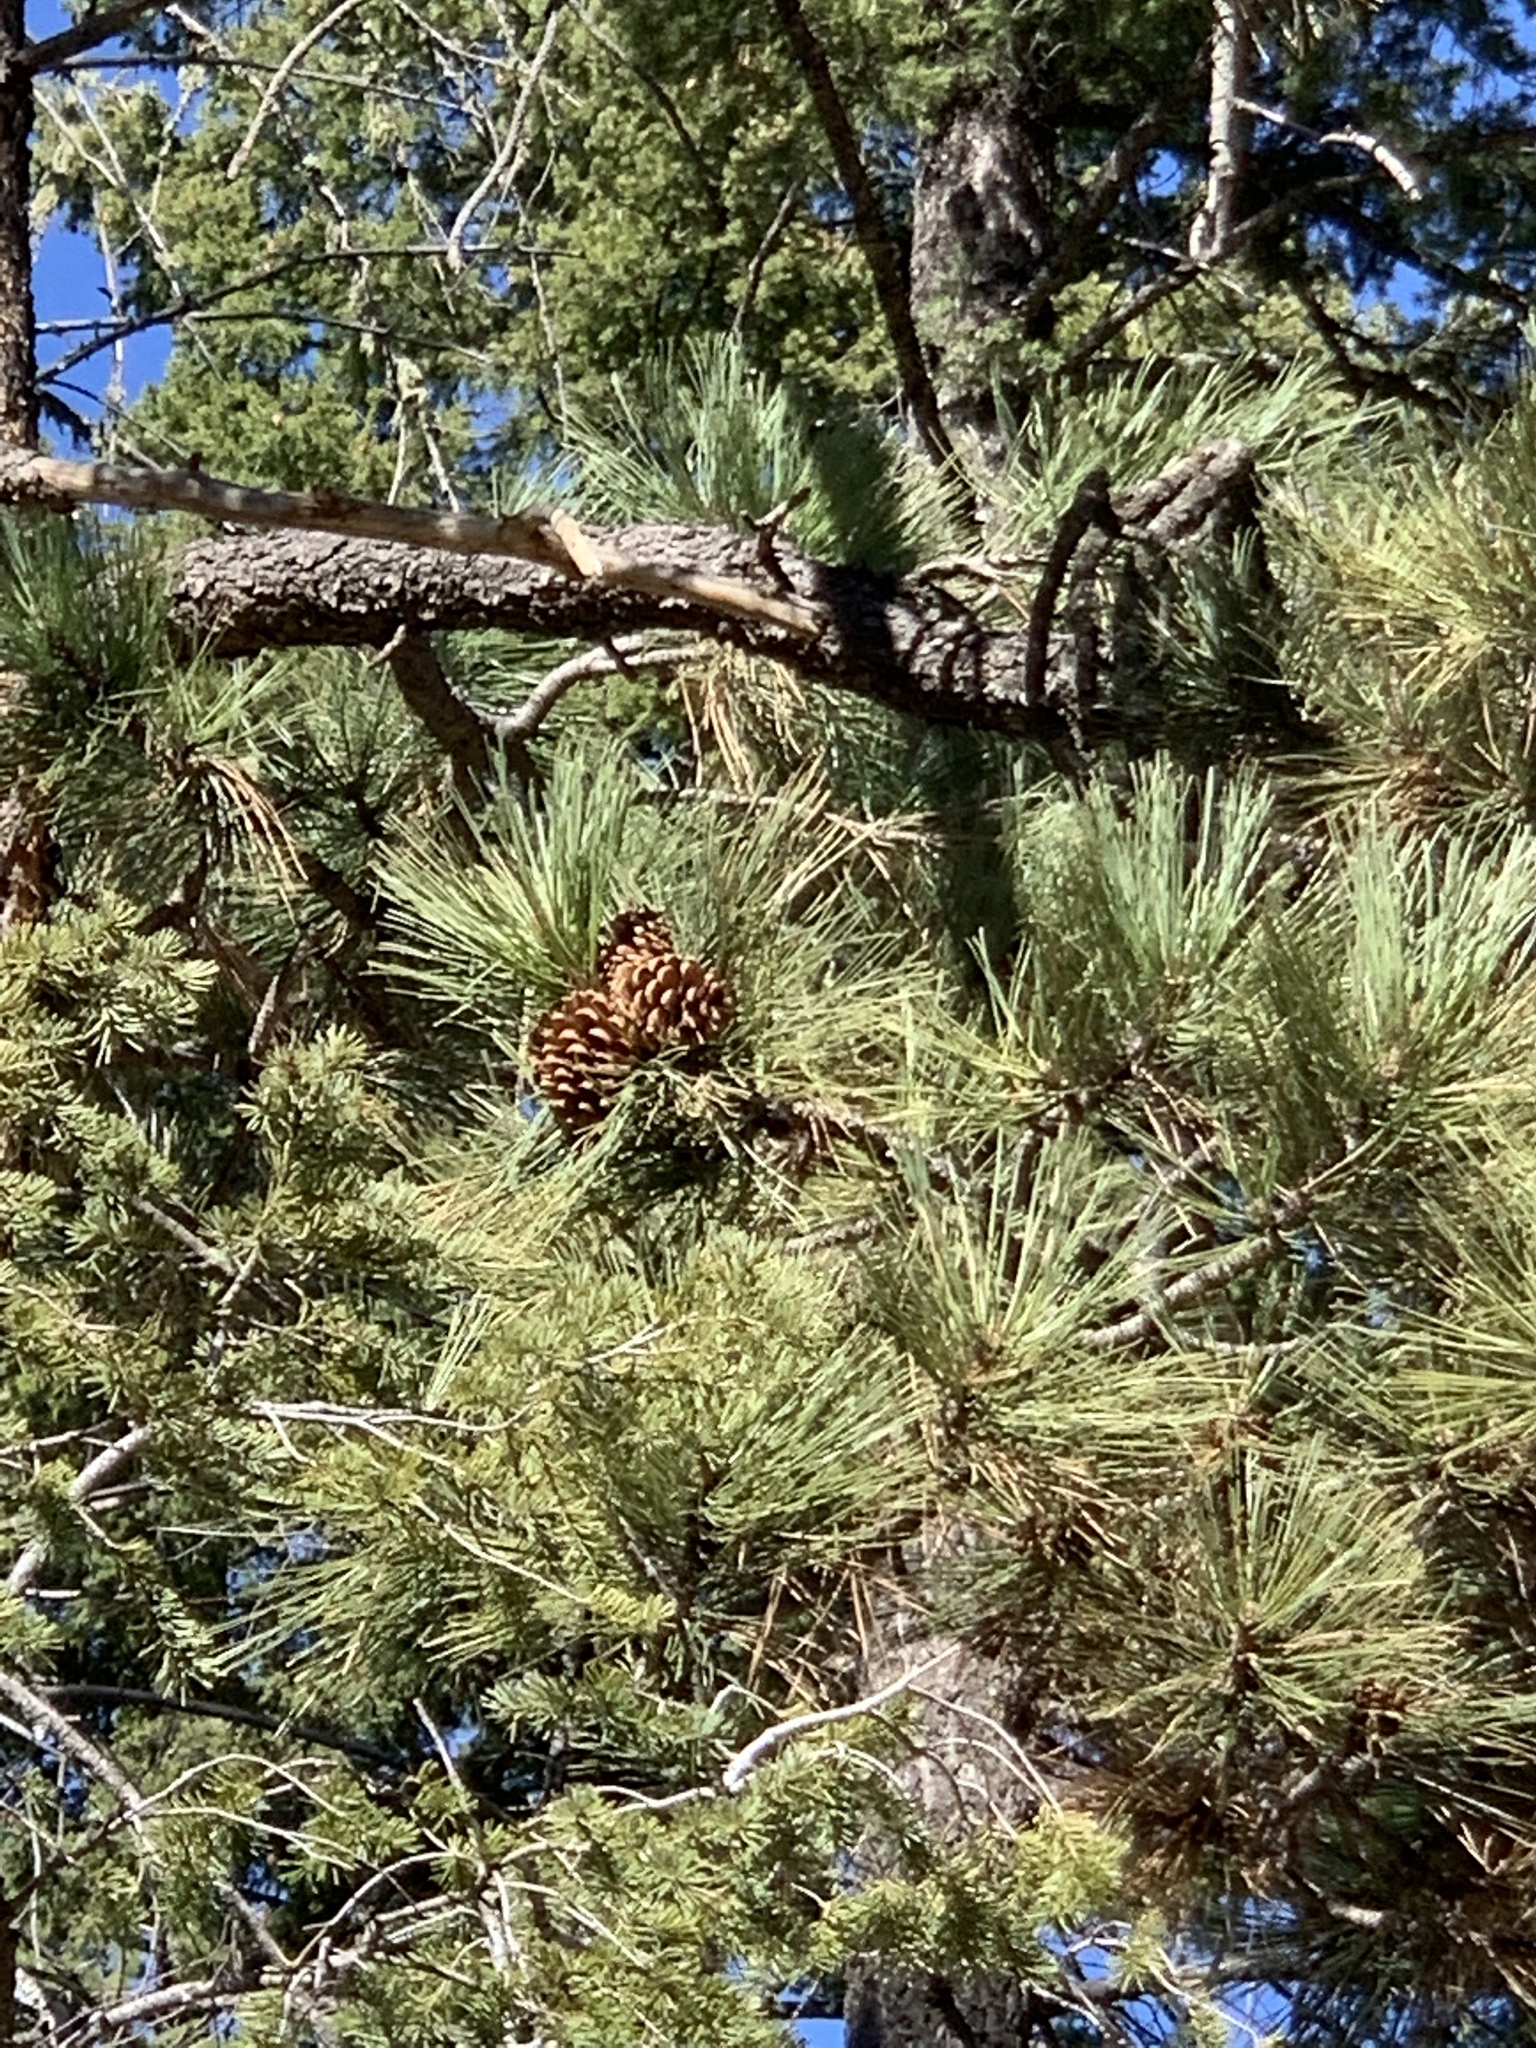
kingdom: Plantae
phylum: Tracheophyta
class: Pinopsida
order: Pinales
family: Pinaceae
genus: Pinus
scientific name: Pinus ponderosa
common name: Western yellow-pine
